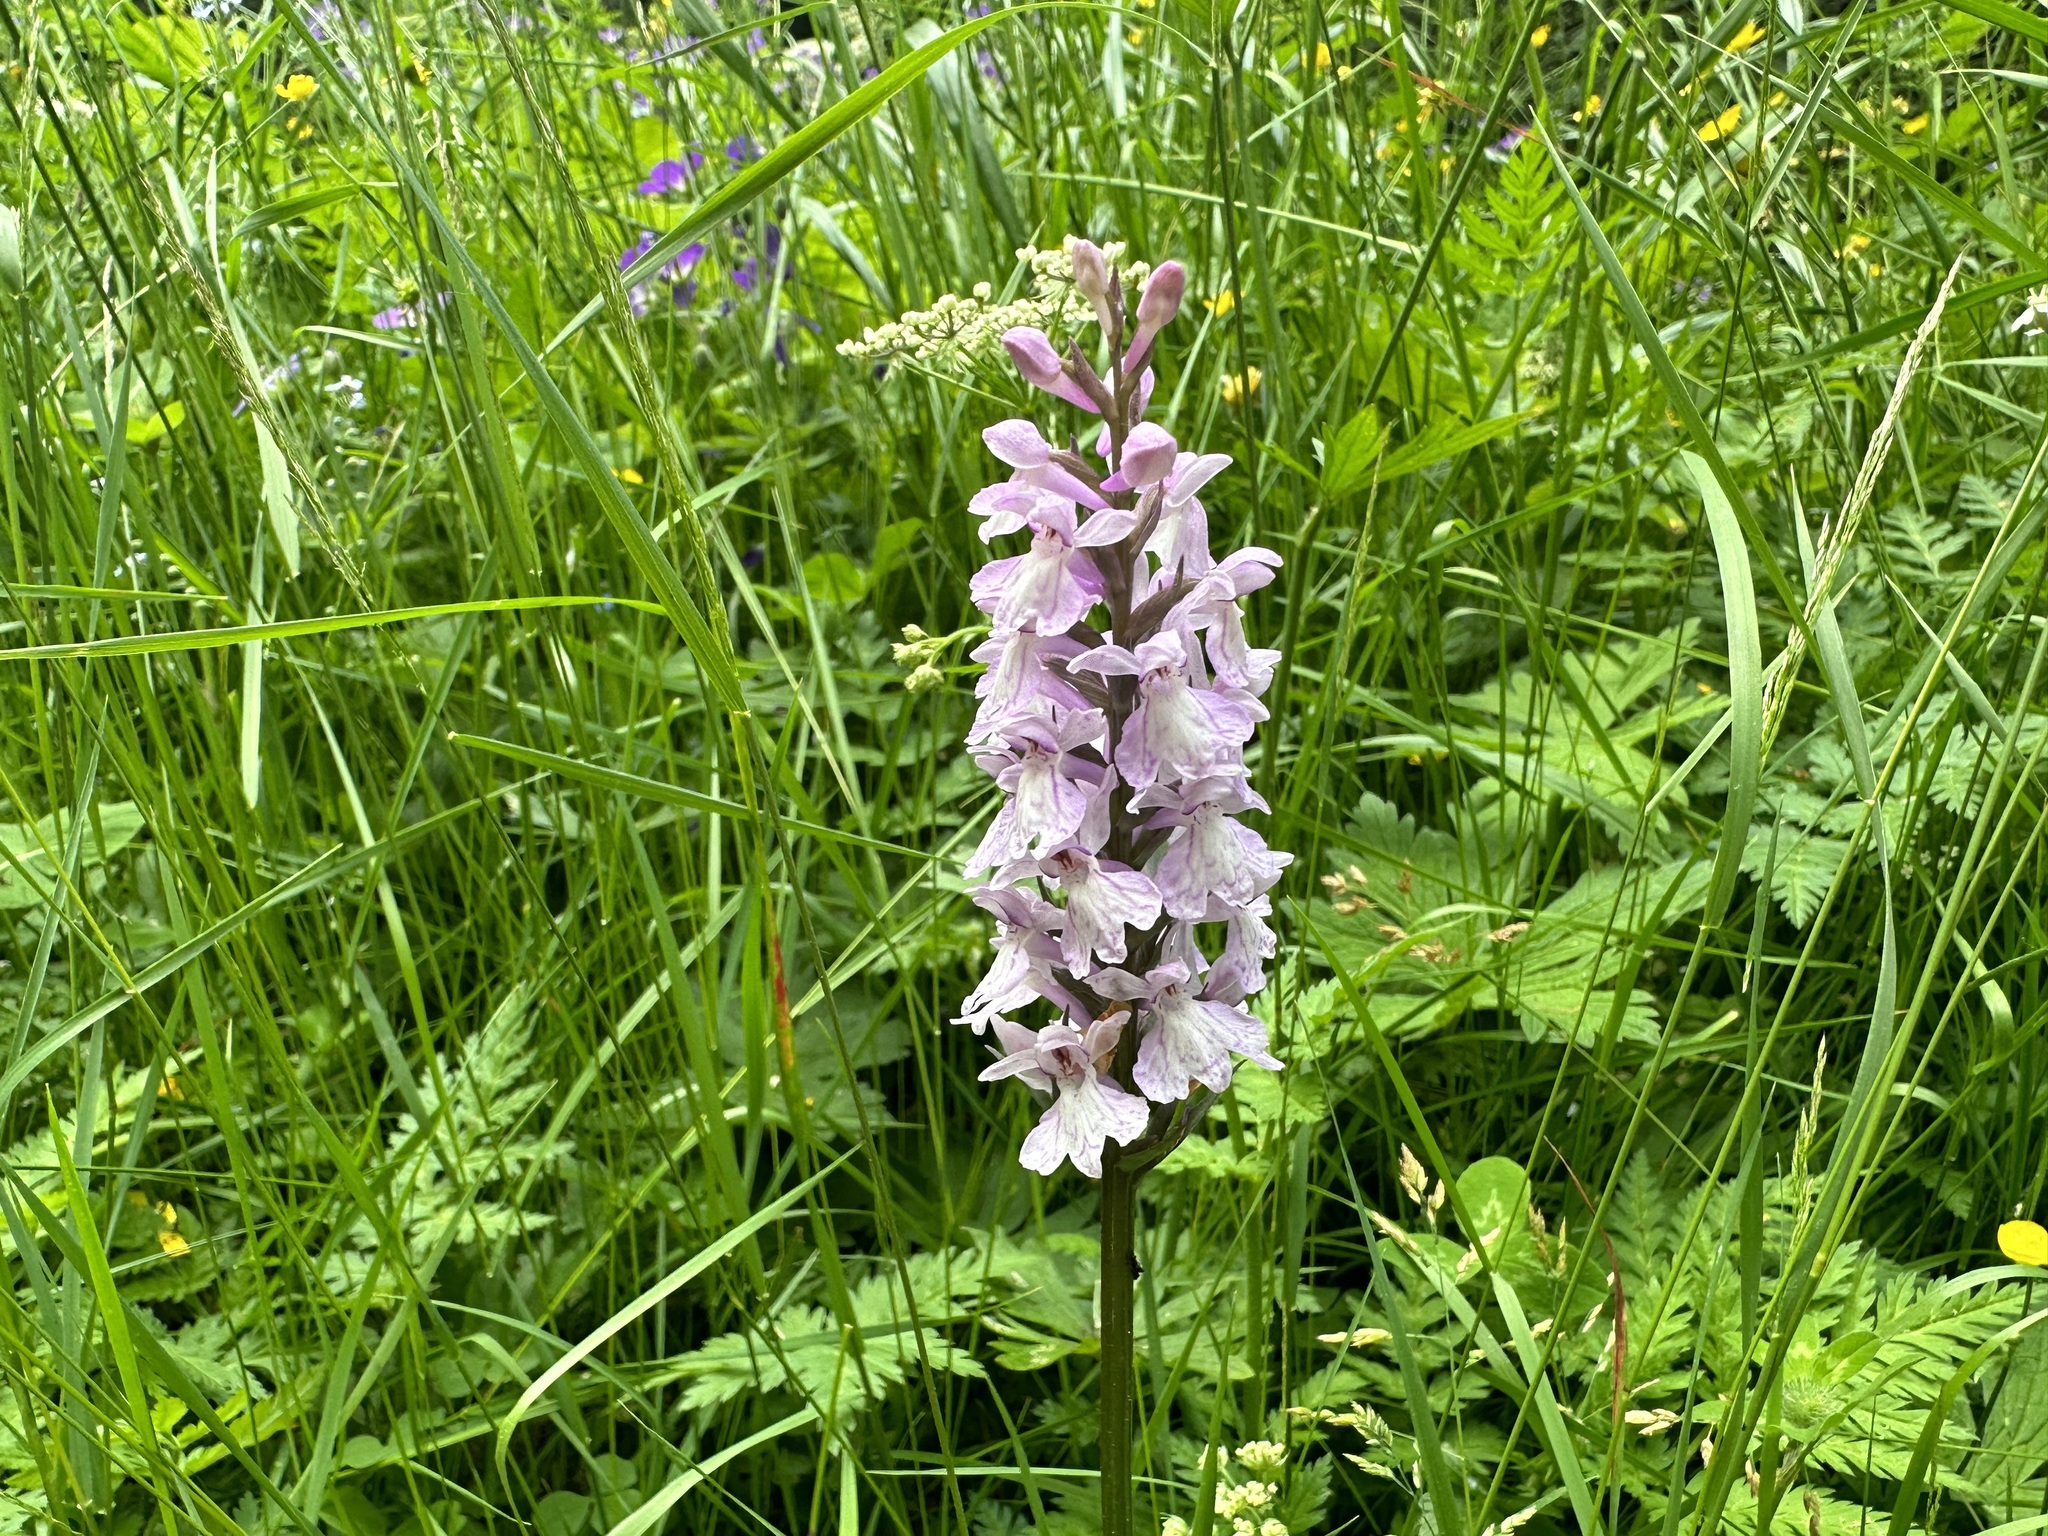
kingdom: Plantae
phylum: Tracheophyta
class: Liliopsida
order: Asparagales
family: Orchidaceae
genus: Dactylorhiza
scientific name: Dactylorhiza maculata
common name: Heath spotted-orchid
